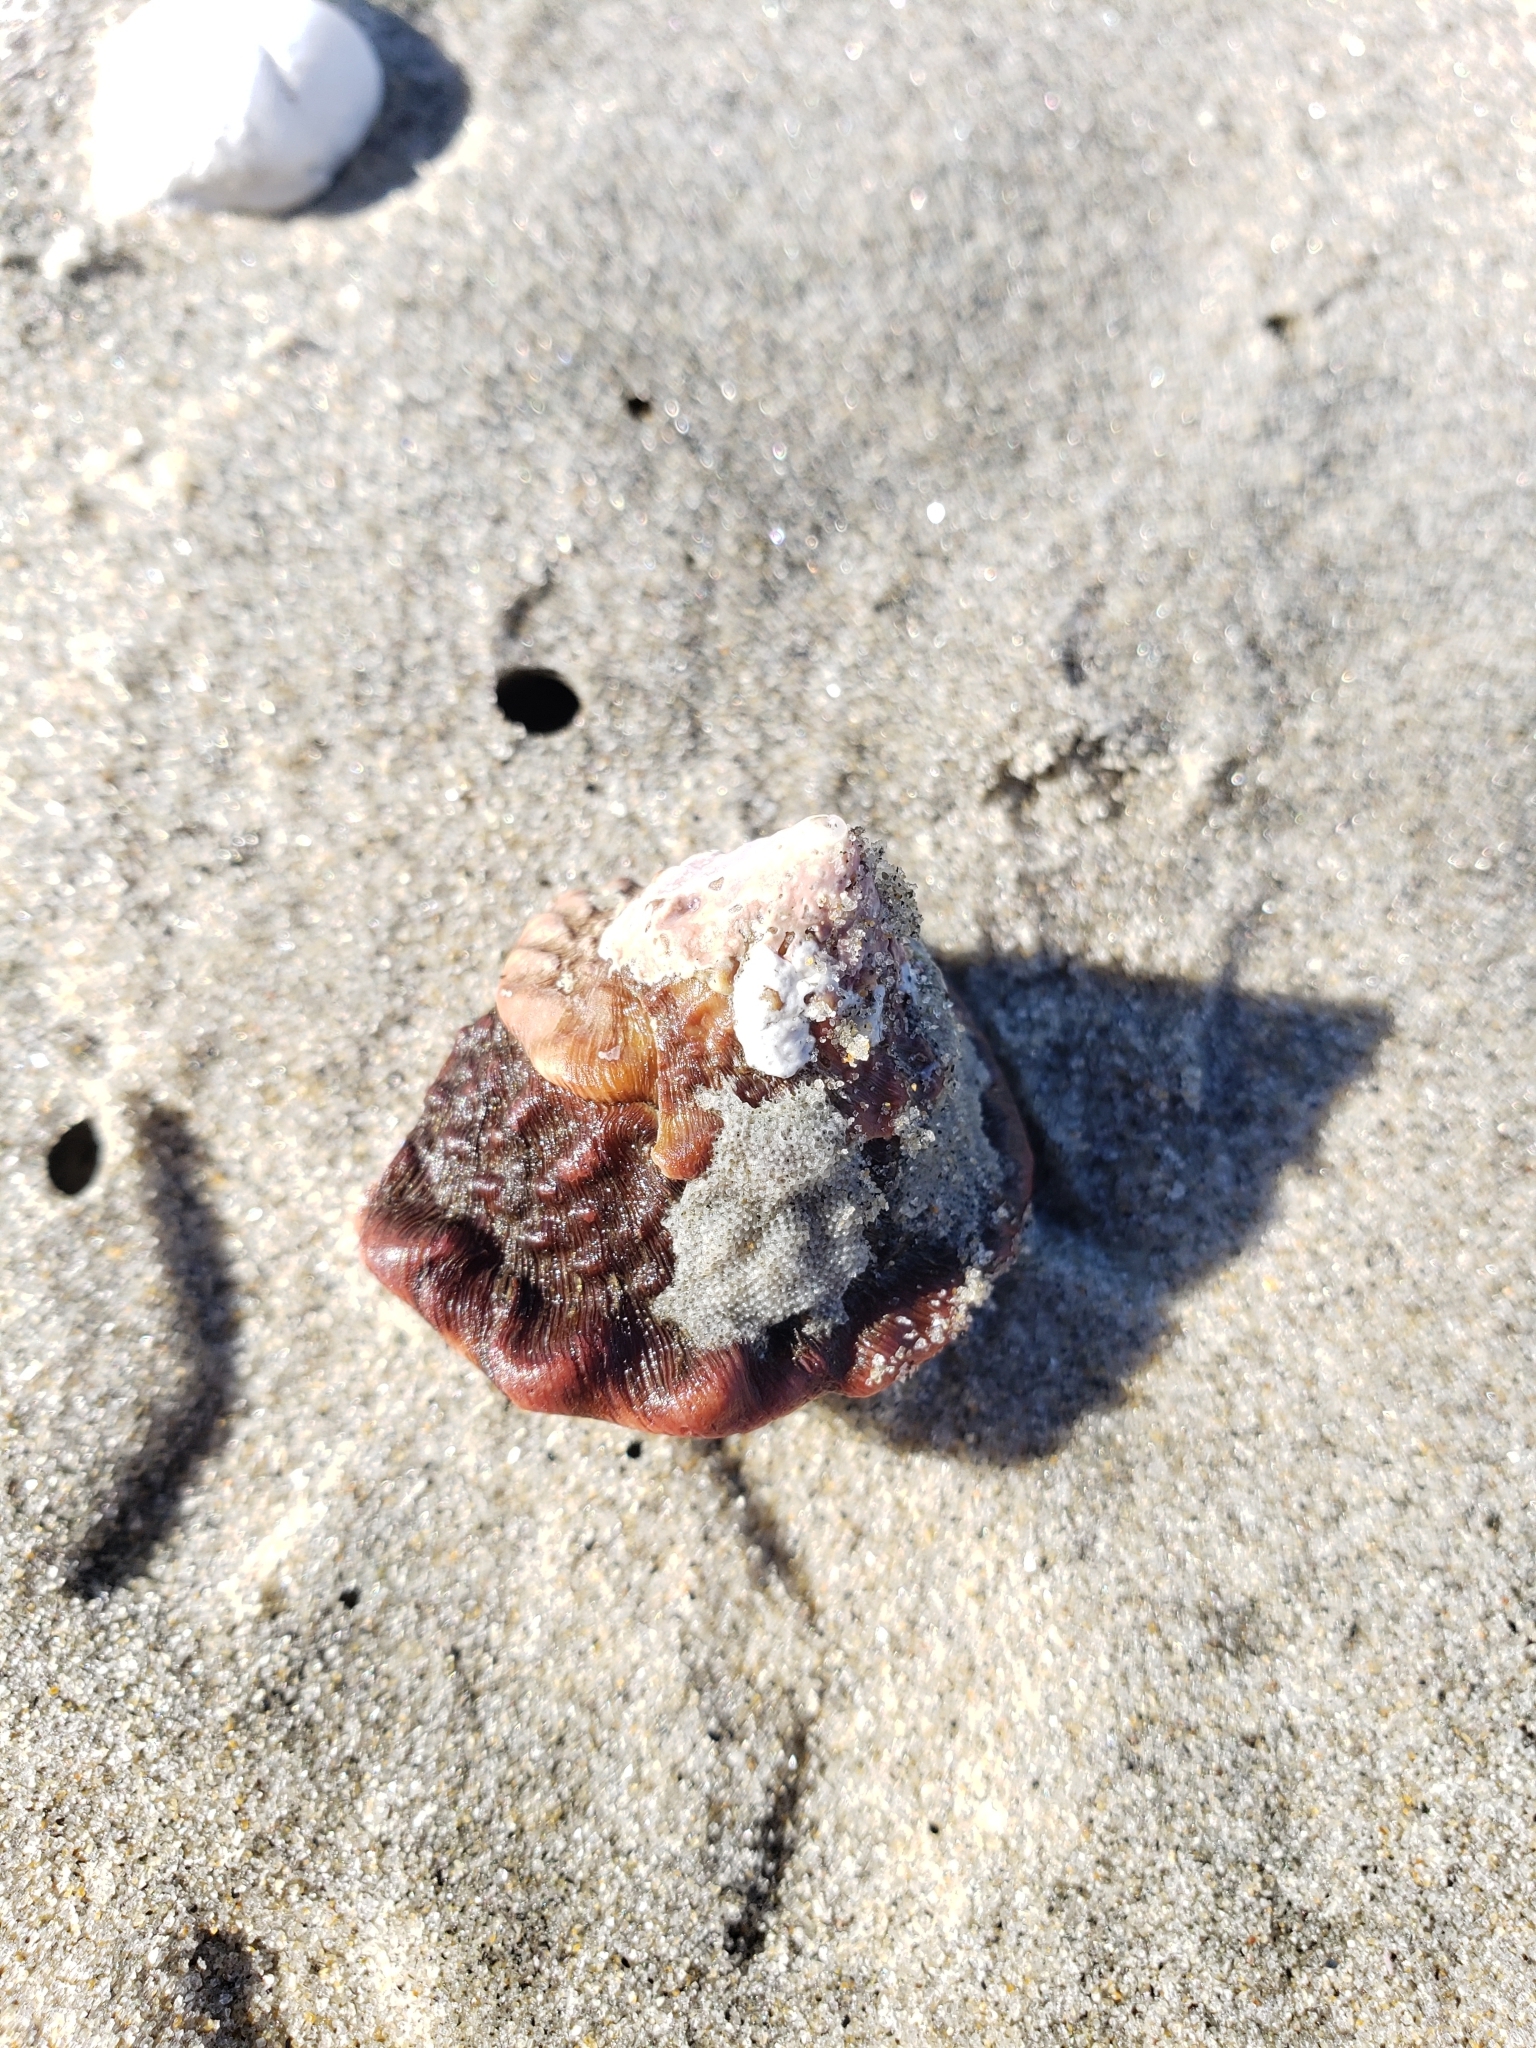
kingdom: Animalia
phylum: Mollusca
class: Gastropoda
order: Trochida
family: Turbinidae
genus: Megastraea
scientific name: Megastraea undosa
